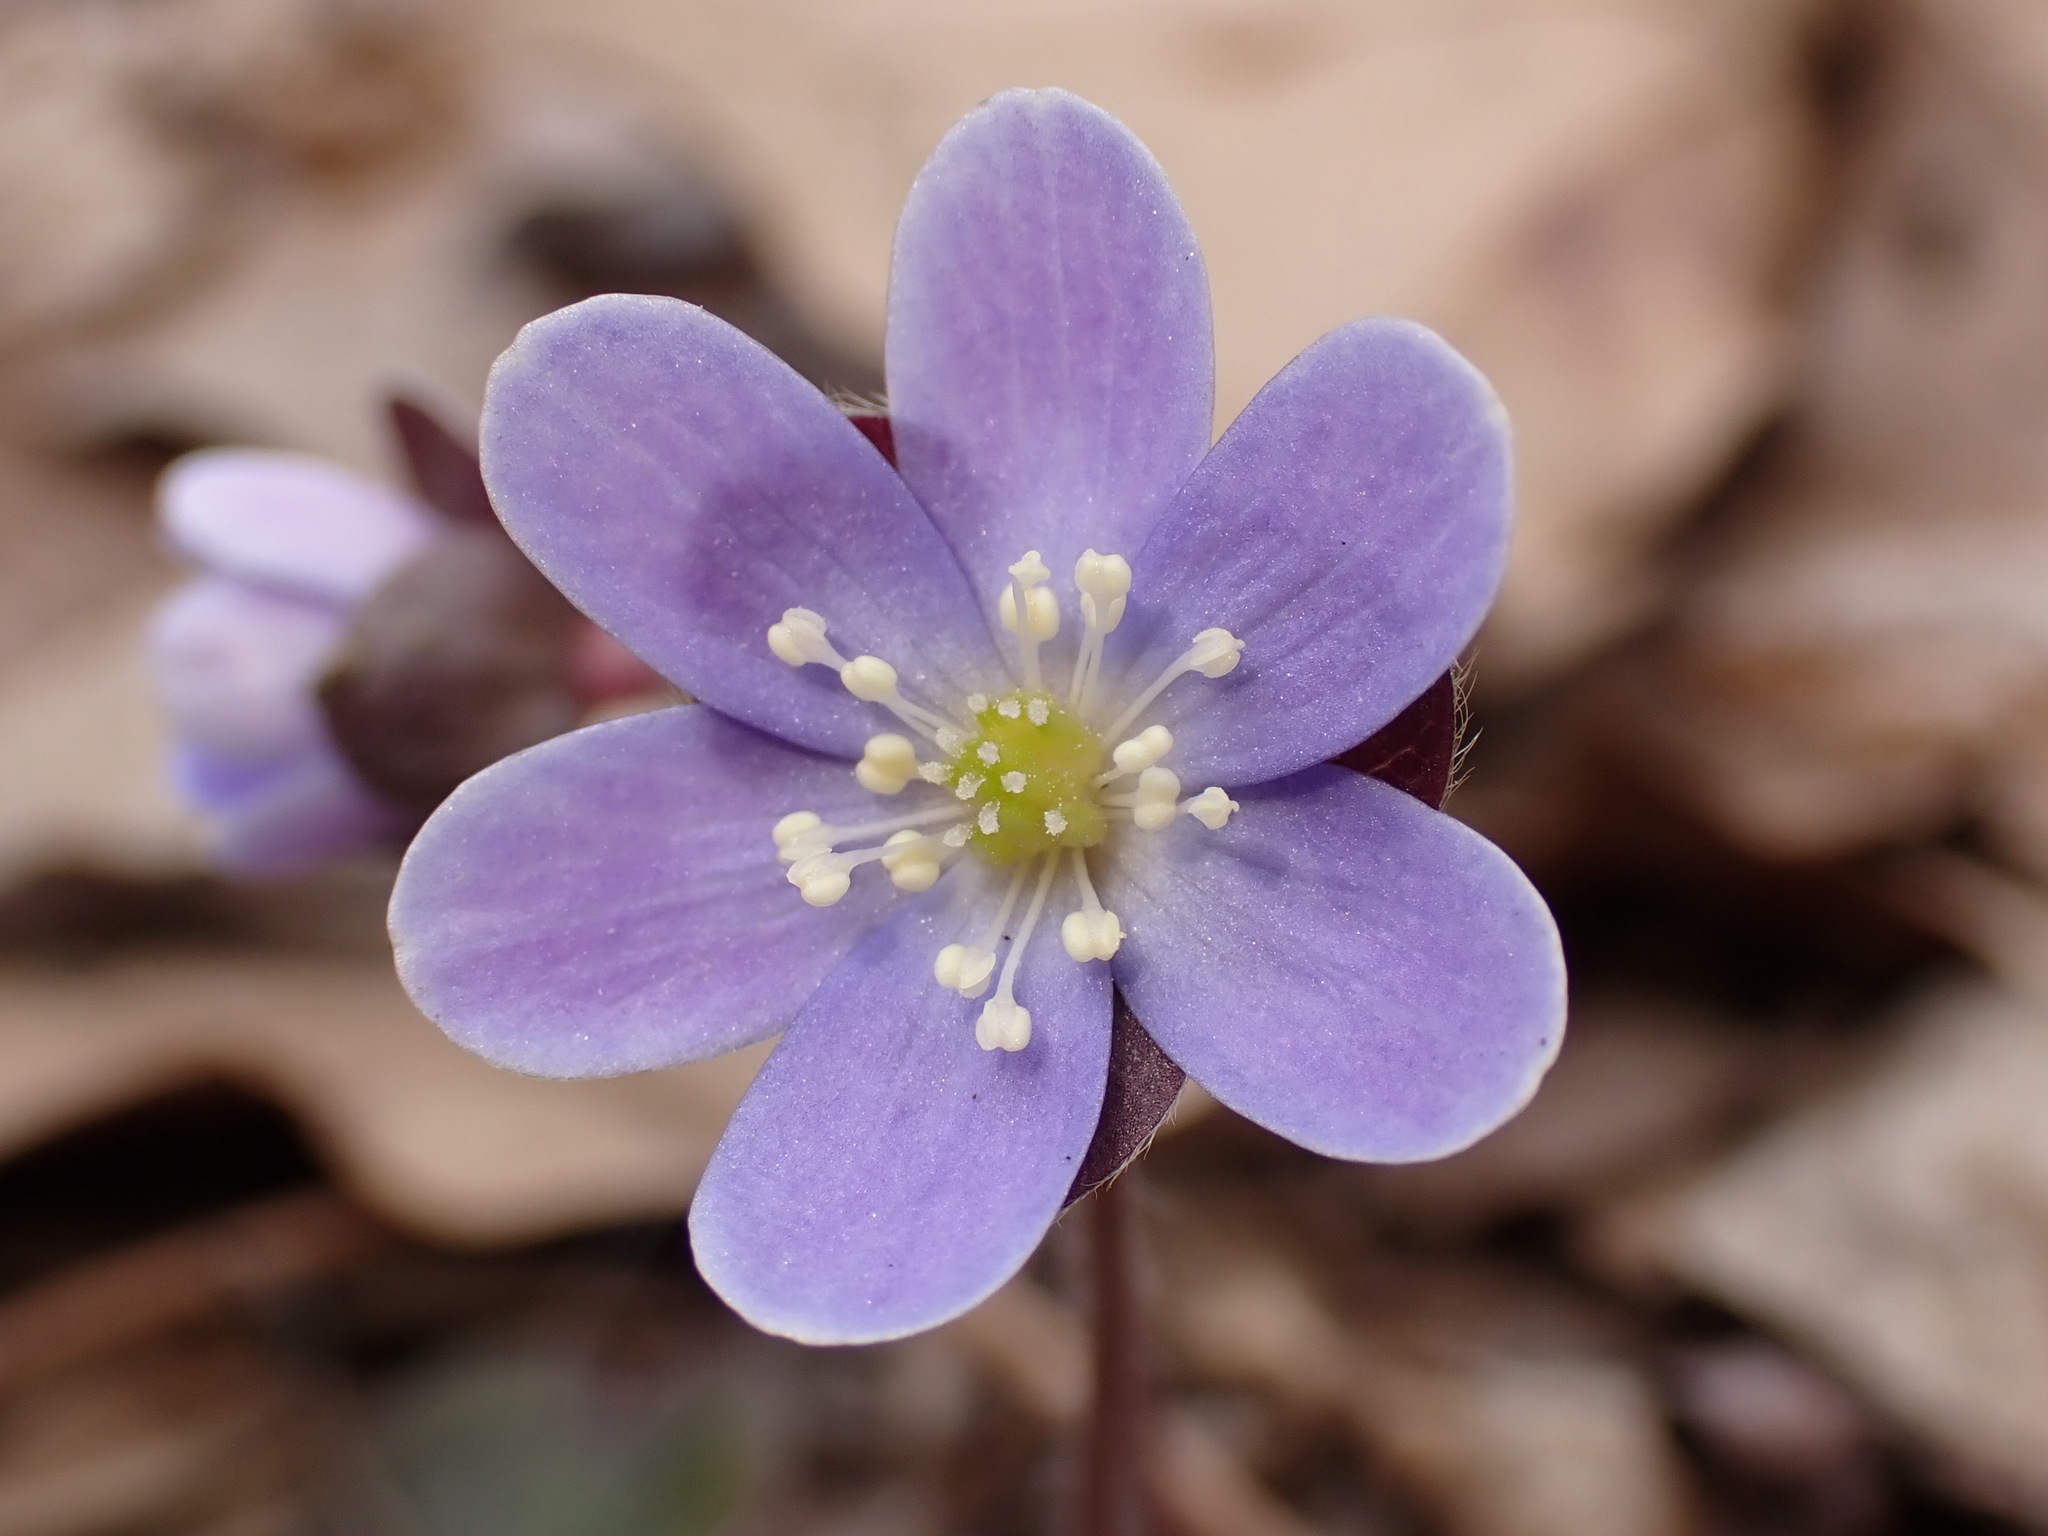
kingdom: Plantae
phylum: Tracheophyta
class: Magnoliopsida
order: Ranunculales
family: Ranunculaceae
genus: Hepatica
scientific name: Hepatica americana
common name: American hepatica
